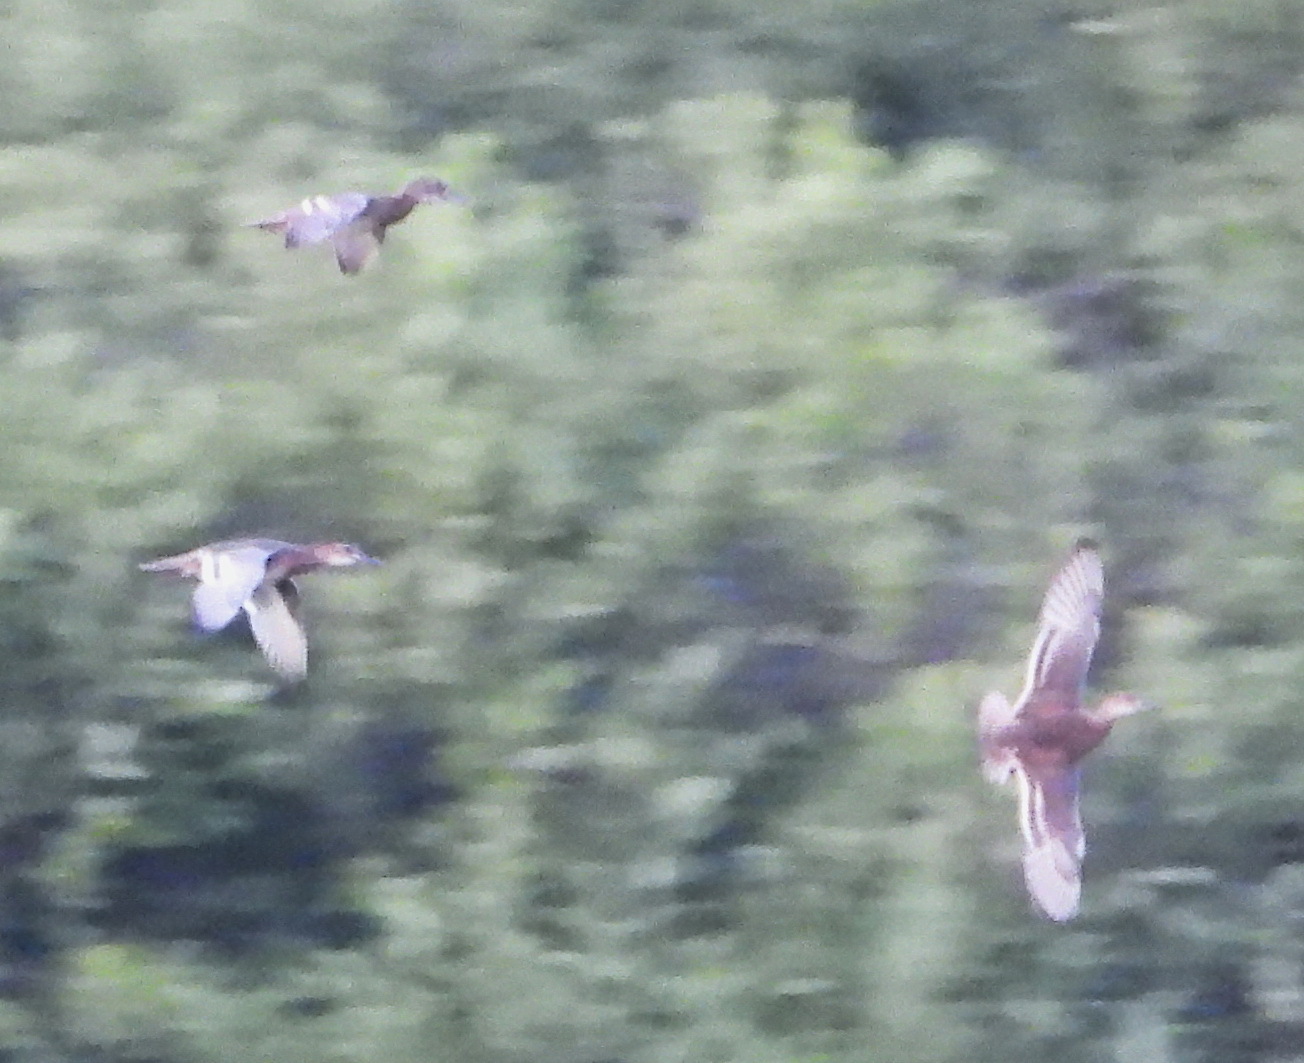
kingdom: Animalia
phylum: Chordata
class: Aves
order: Anseriformes
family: Anatidae
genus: Spatula
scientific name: Spatula querquedula
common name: Garganey
